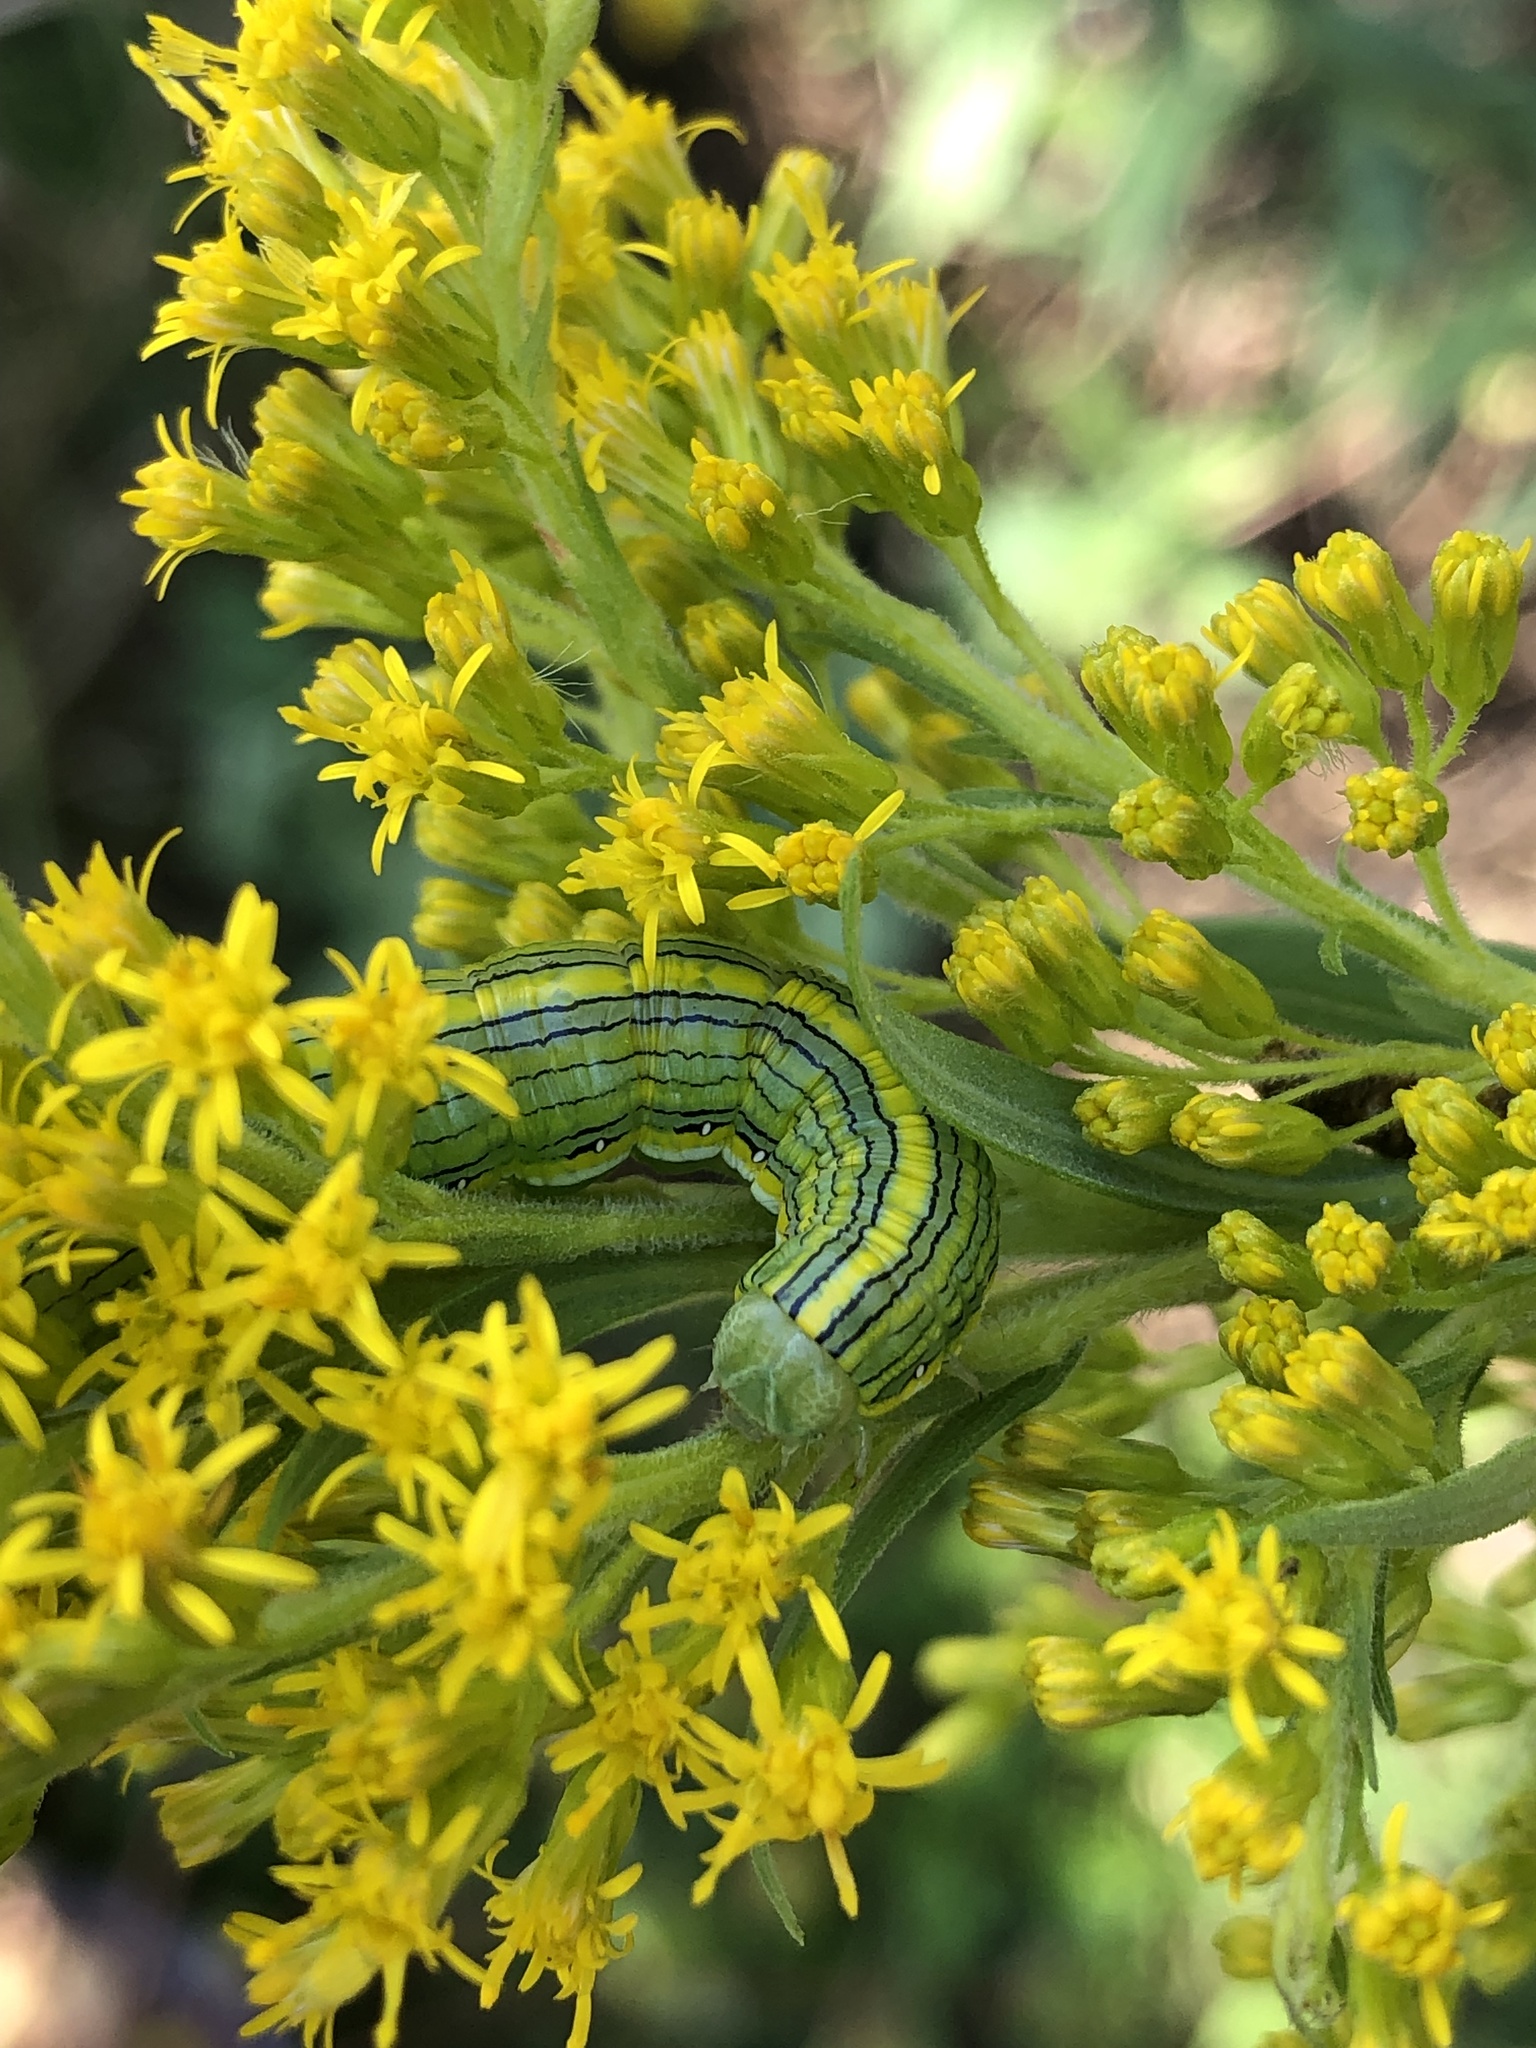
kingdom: Animalia
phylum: Arthropoda
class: Insecta
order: Lepidoptera
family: Noctuidae
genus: Cucullia
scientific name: Cucullia asteroides
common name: Asteroid moth
